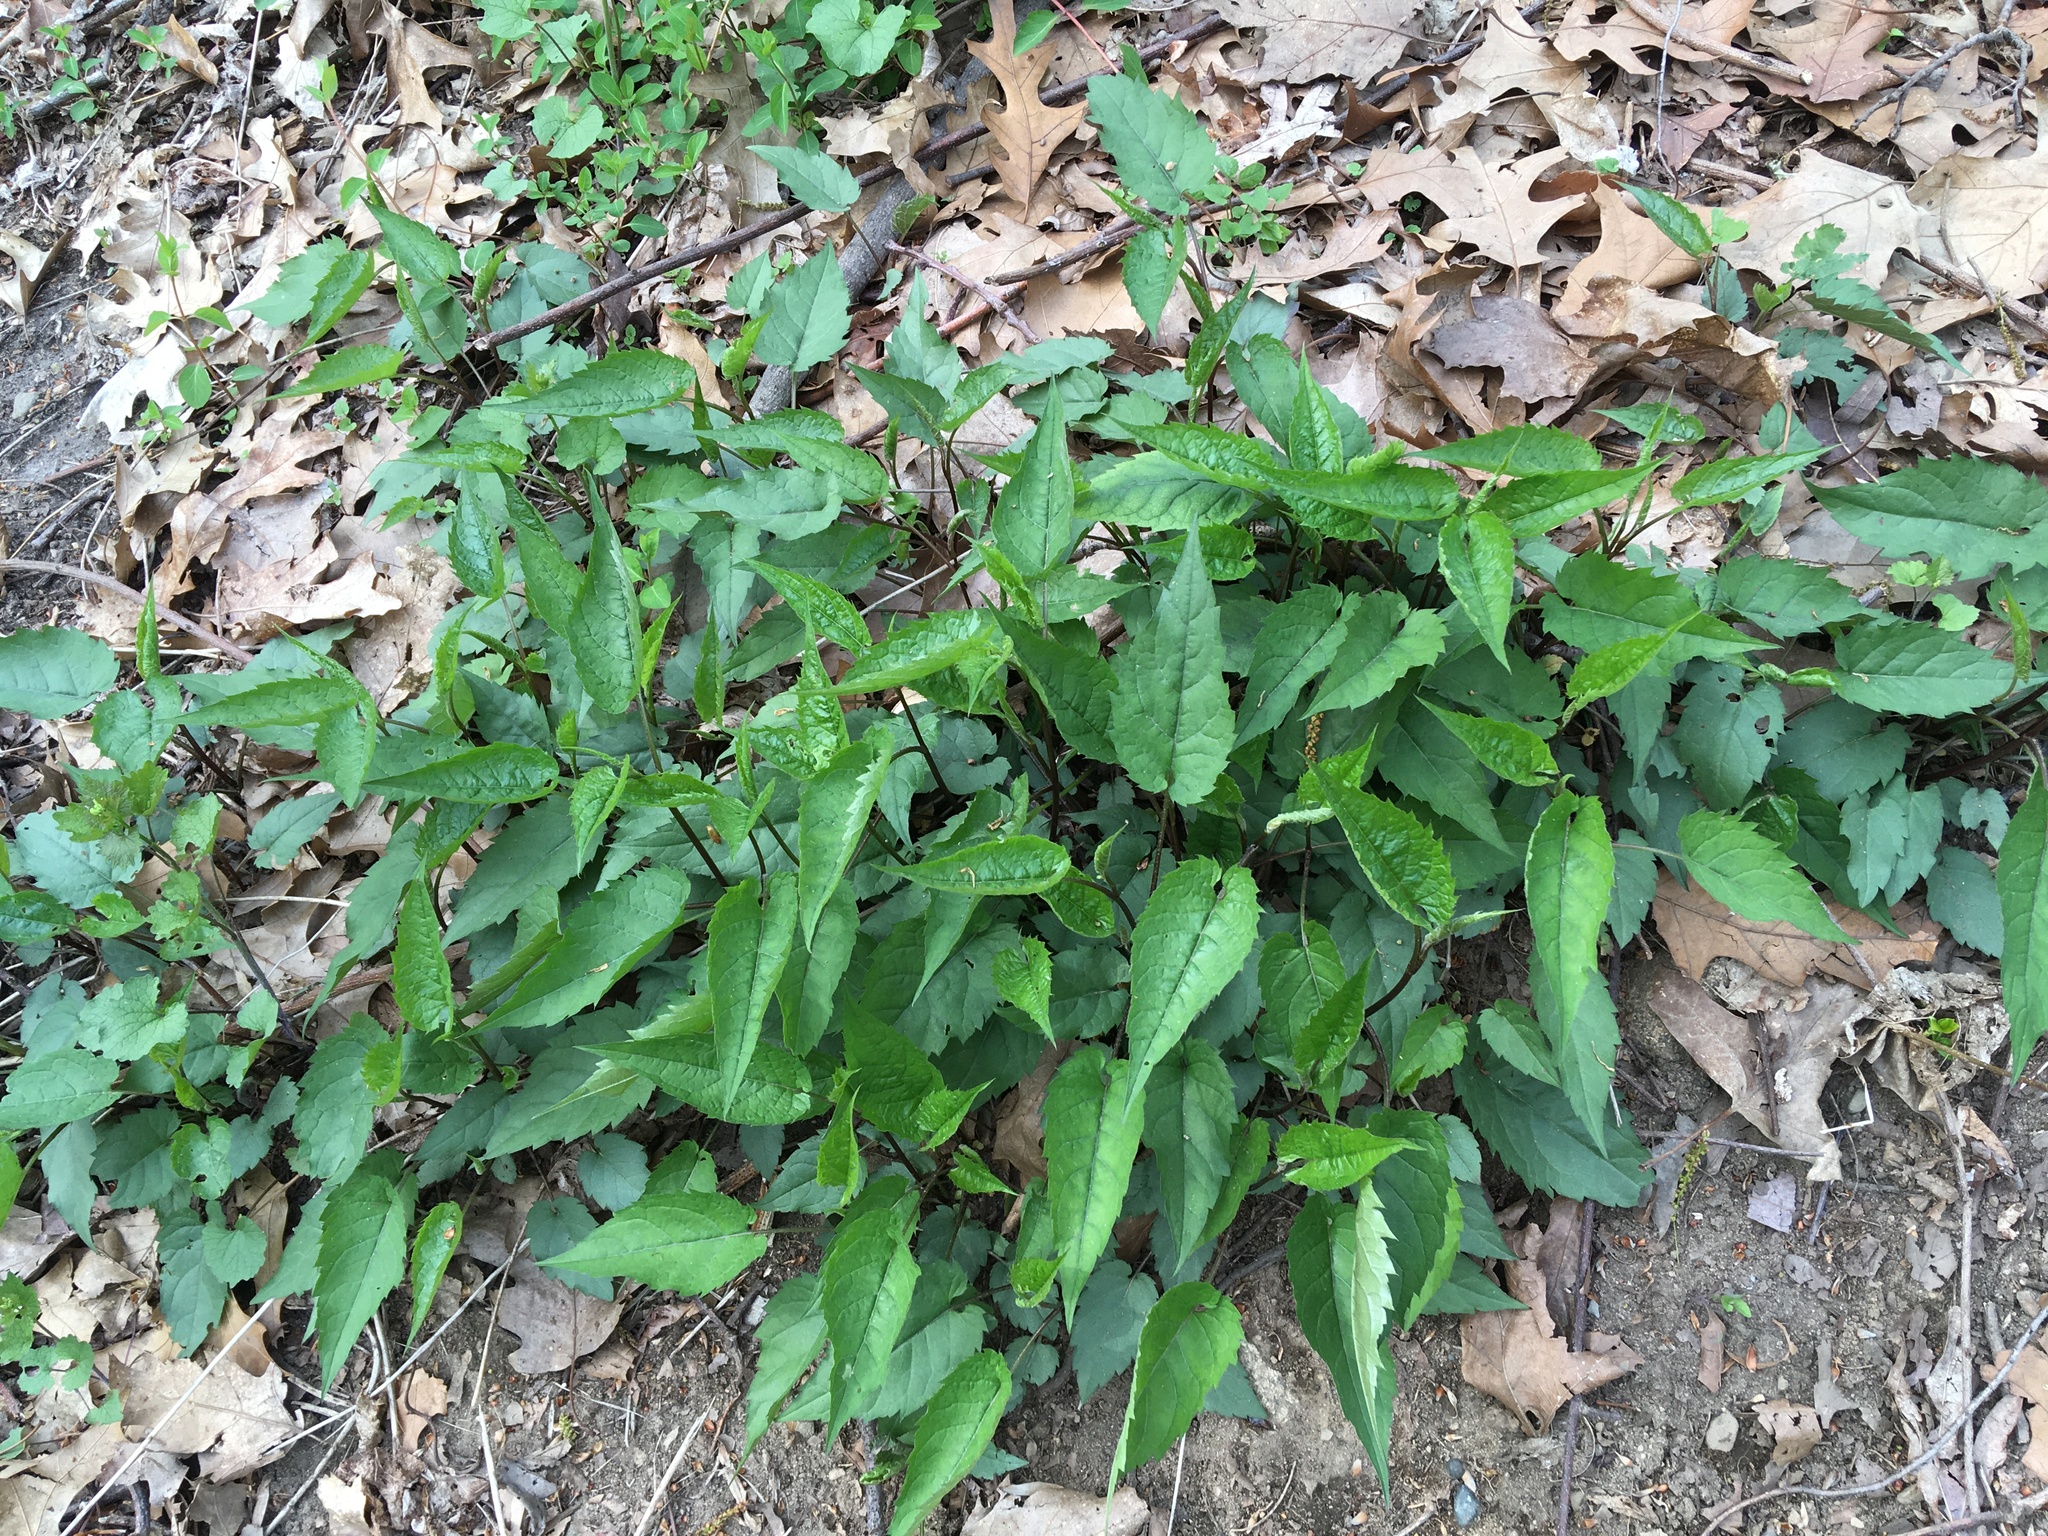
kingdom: Plantae
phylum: Tracheophyta
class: Magnoliopsida
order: Asterales
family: Asteraceae
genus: Eurybia
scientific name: Eurybia divaricata
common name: White wood aster
